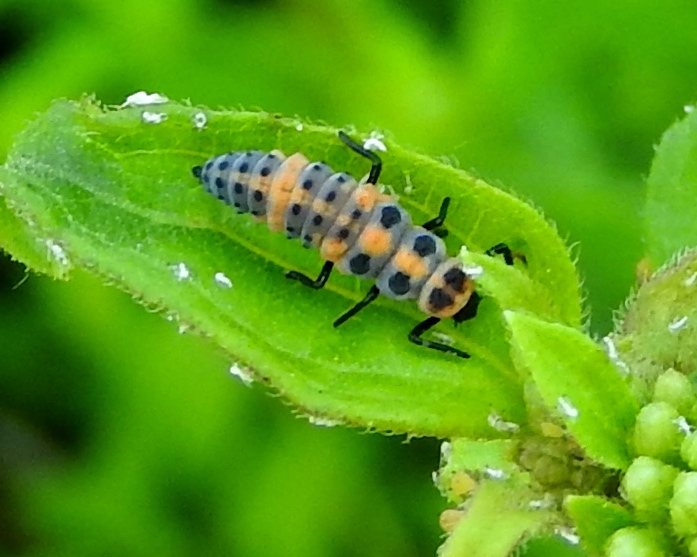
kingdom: Animalia
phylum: Arthropoda
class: Insecta
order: Coleoptera
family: Coccinellidae
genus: Coccinellina
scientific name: Coccinellina
